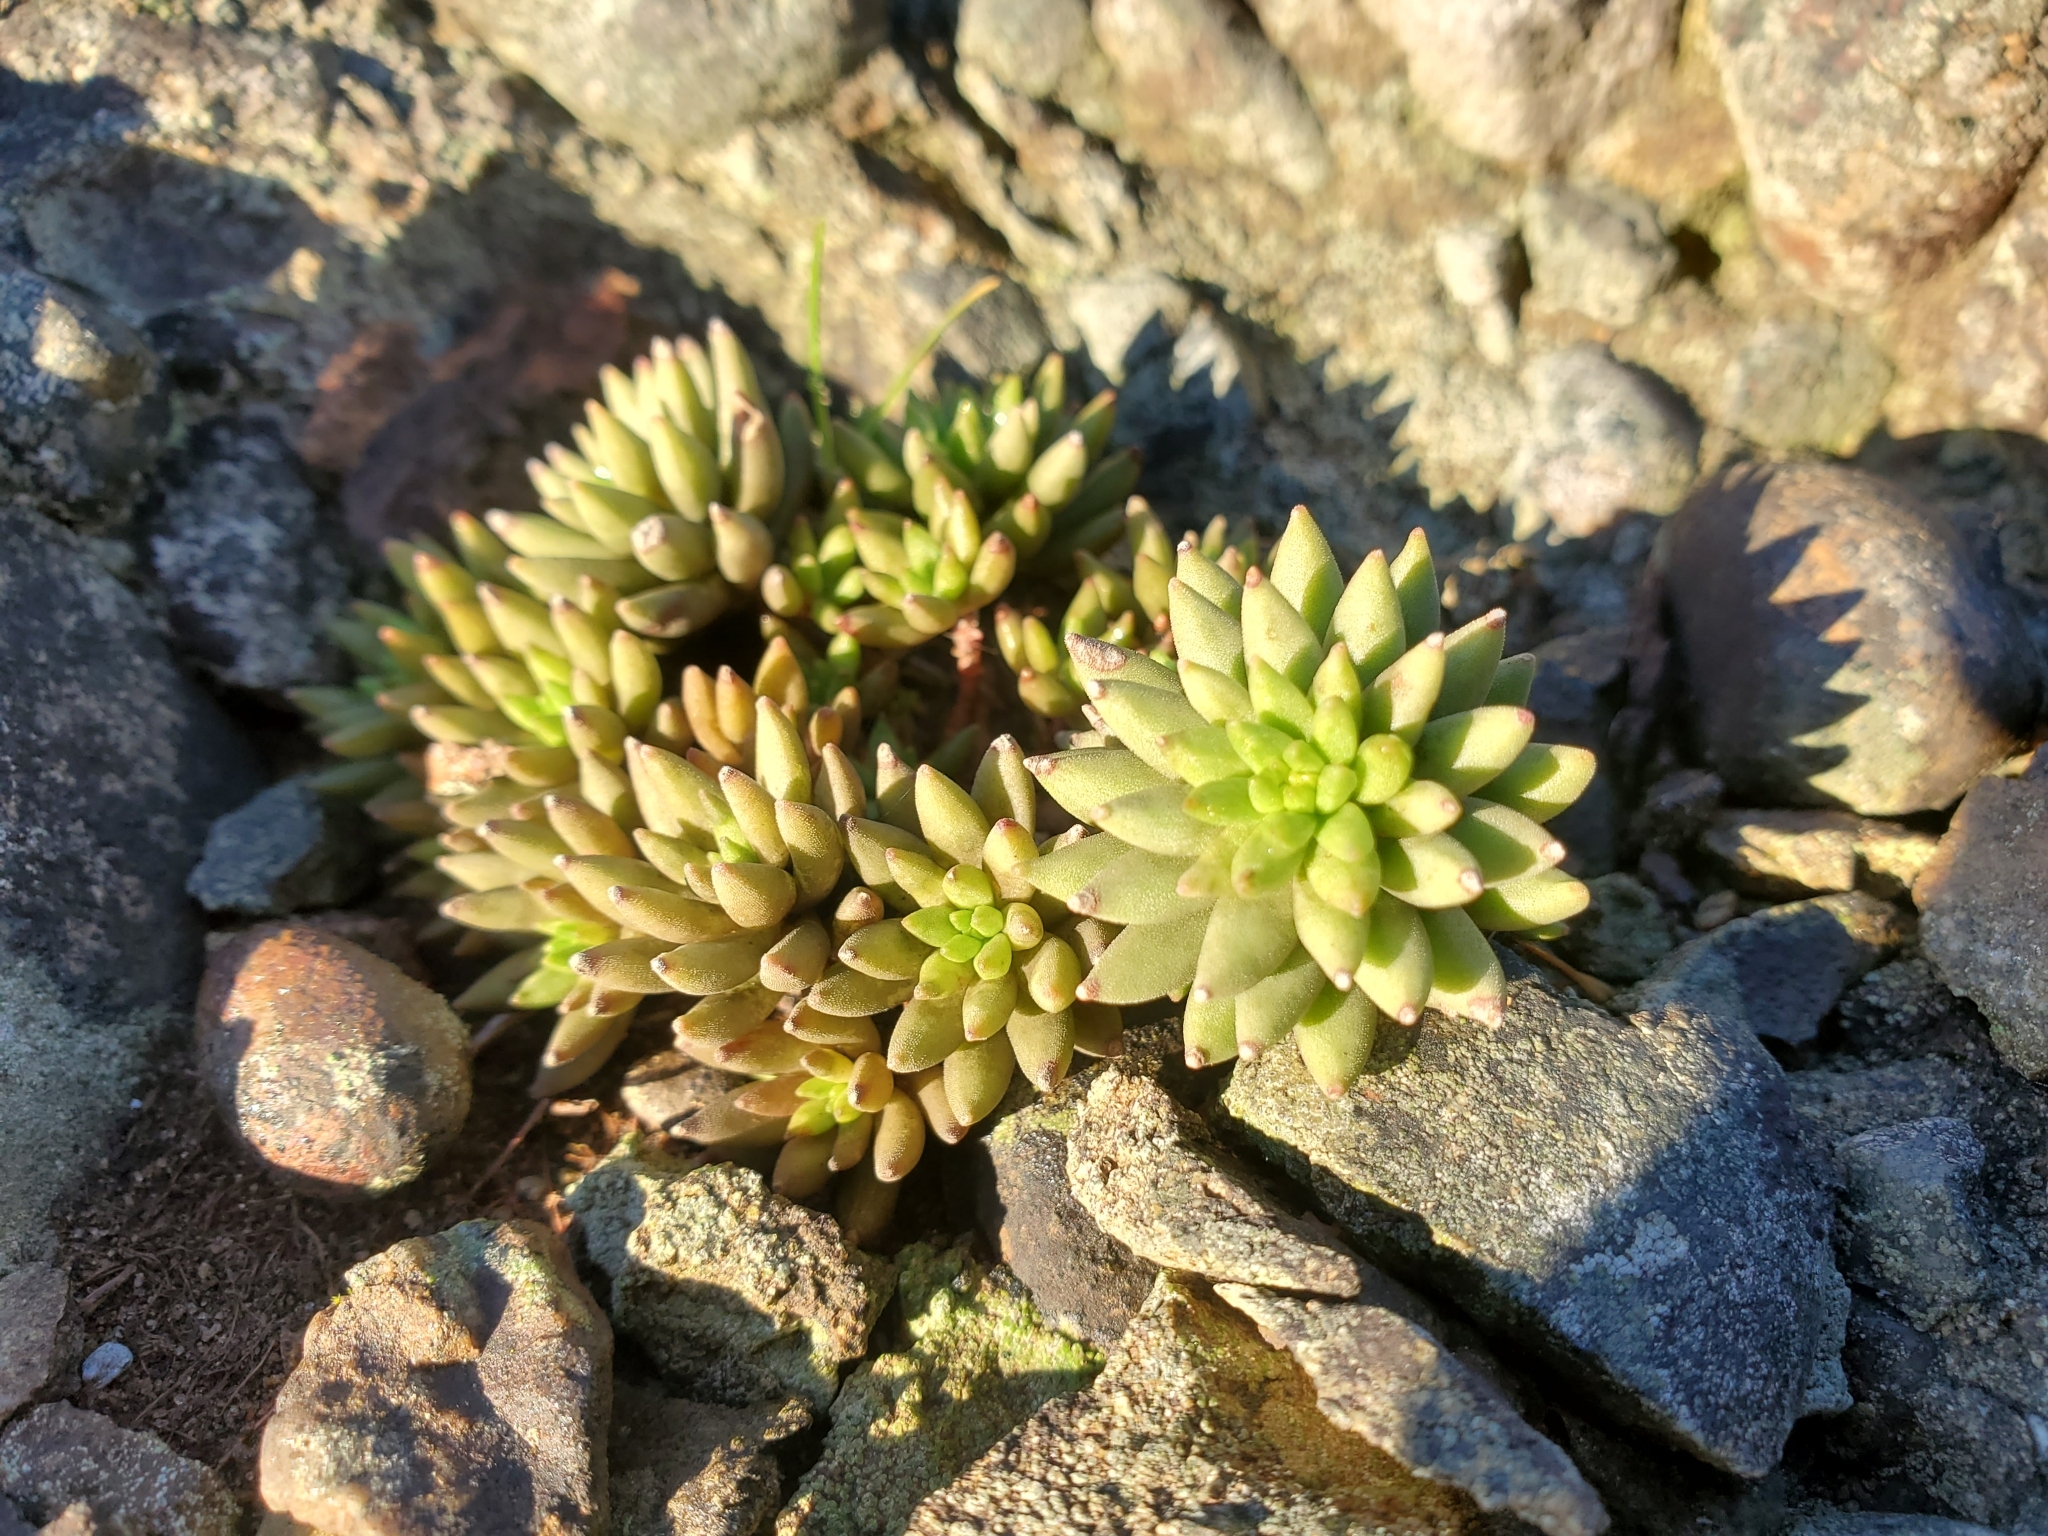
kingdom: Plantae
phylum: Tracheophyta
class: Magnoliopsida
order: Saxifragales
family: Crassulaceae
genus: Sedum
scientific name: Sedum lanceolatum
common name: Common stonecrop
